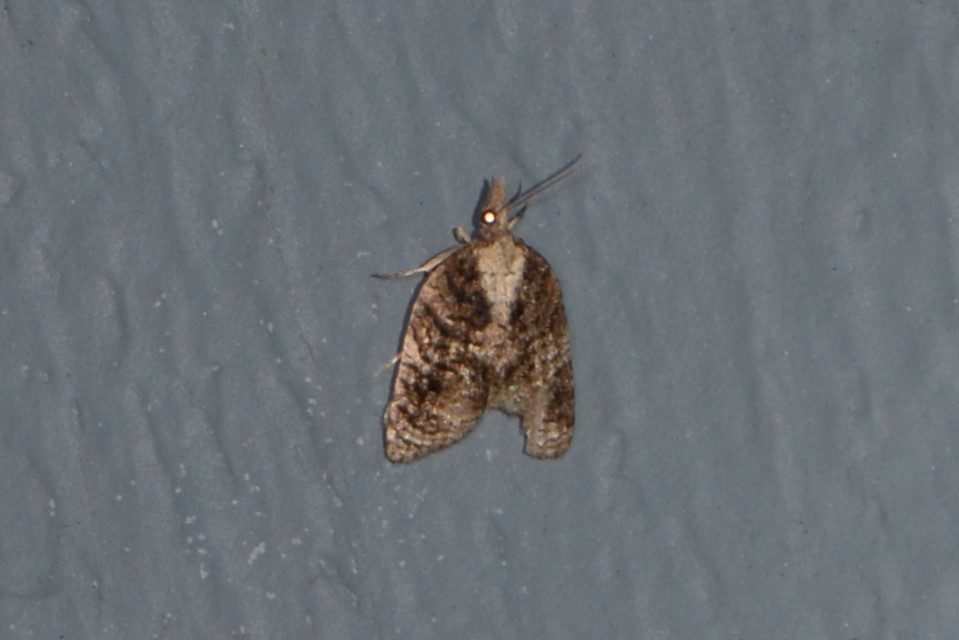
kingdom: Animalia
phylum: Arthropoda
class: Insecta
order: Lepidoptera
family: Tortricidae
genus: Platynota
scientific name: Platynota exasperatana
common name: Exasperating platynota moth
